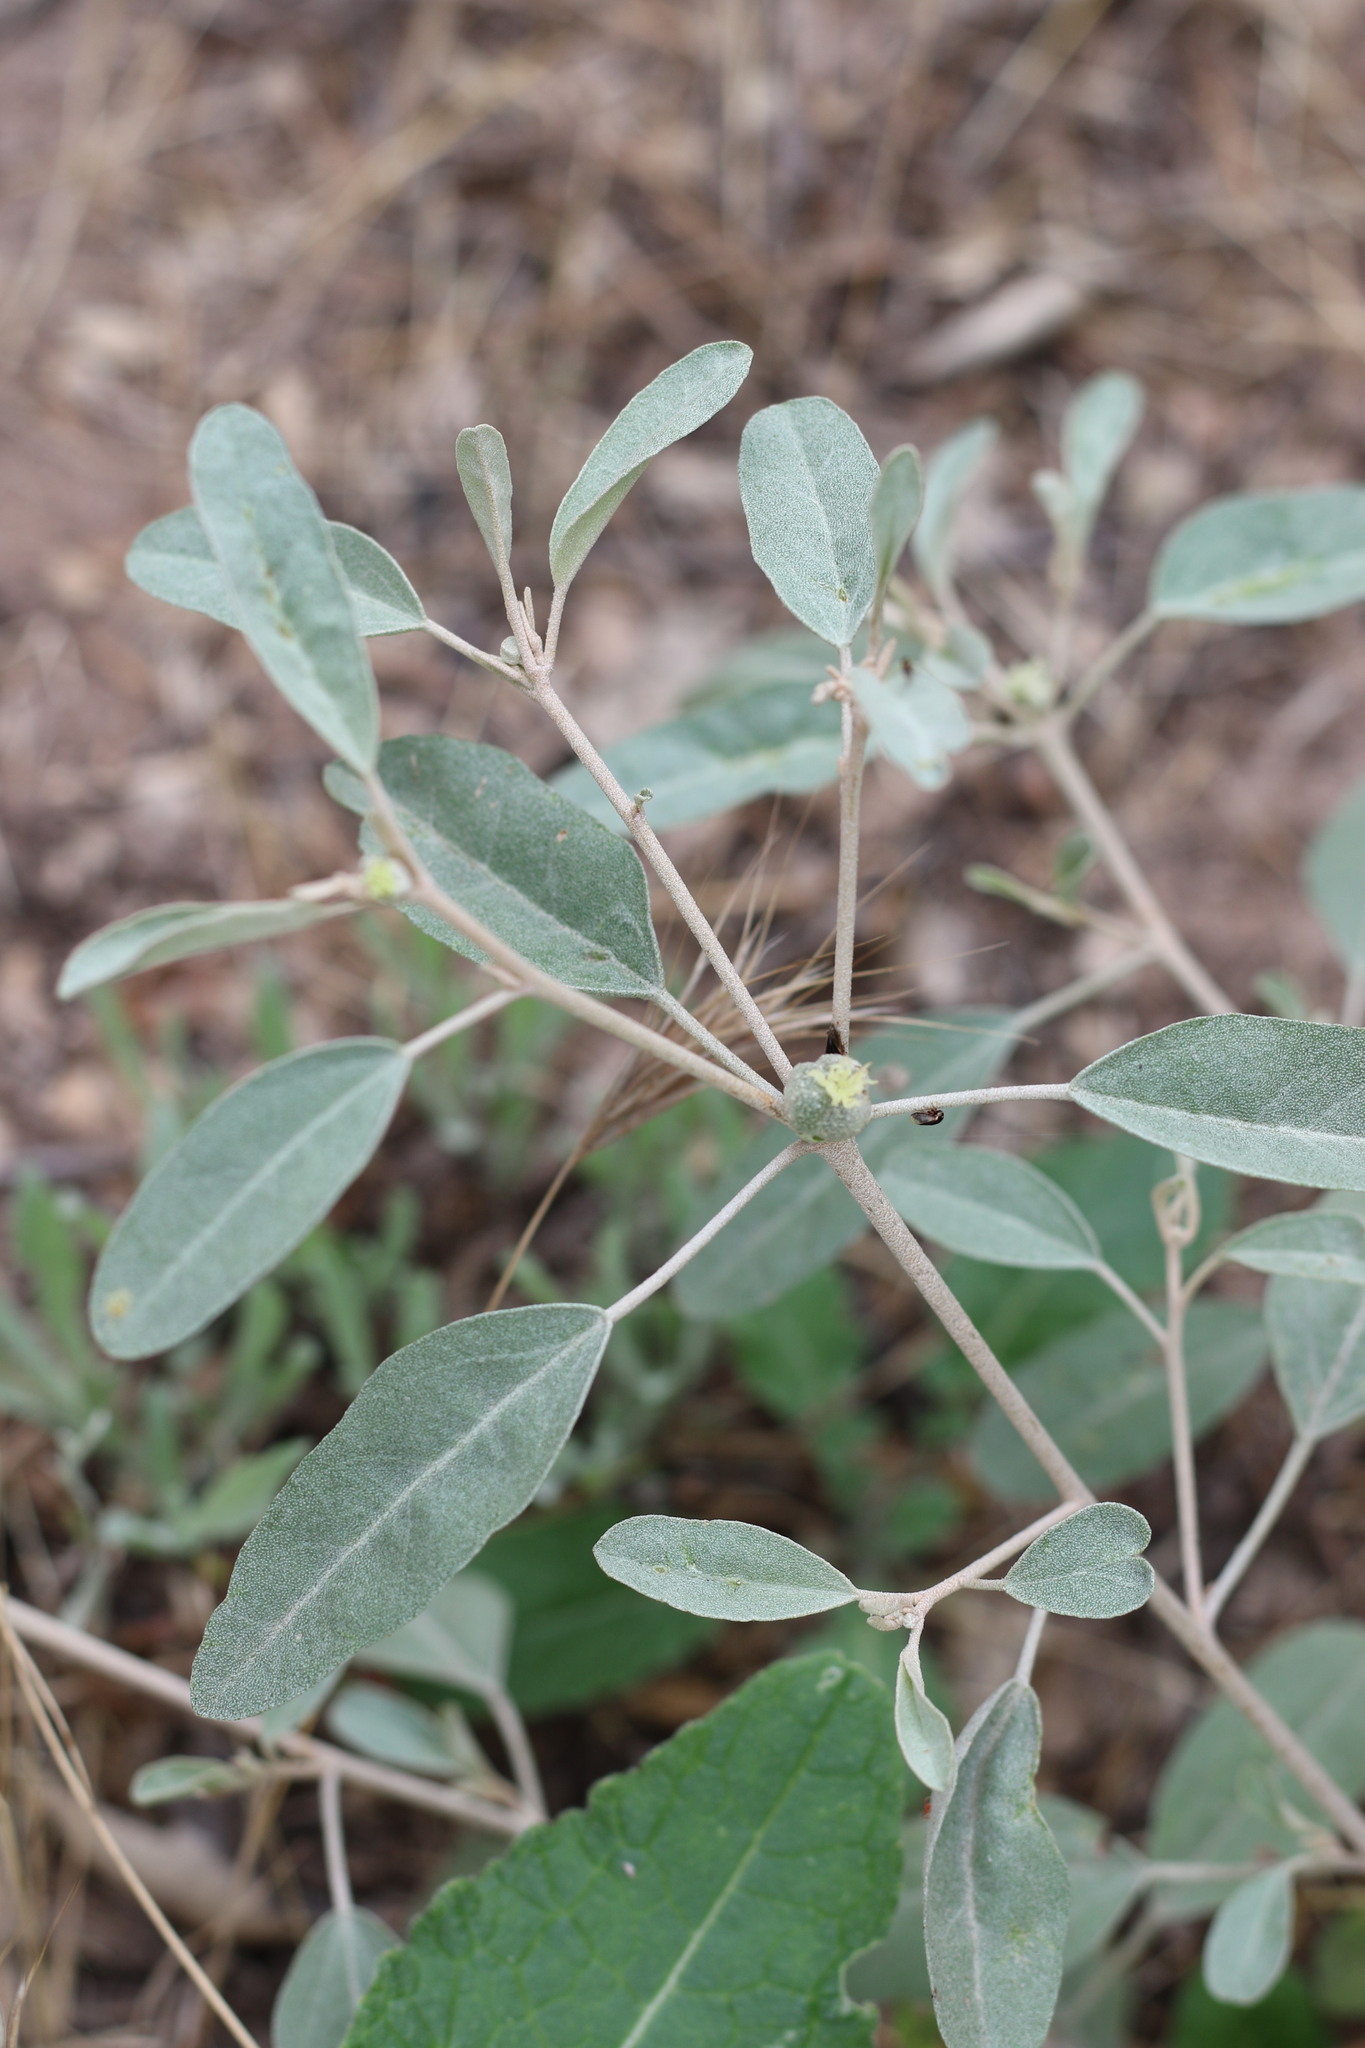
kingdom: Plantae
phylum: Tracheophyta
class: Magnoliopsida
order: Malpighiales
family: Euphorbiaceae
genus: Croton
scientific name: Croton californicus
